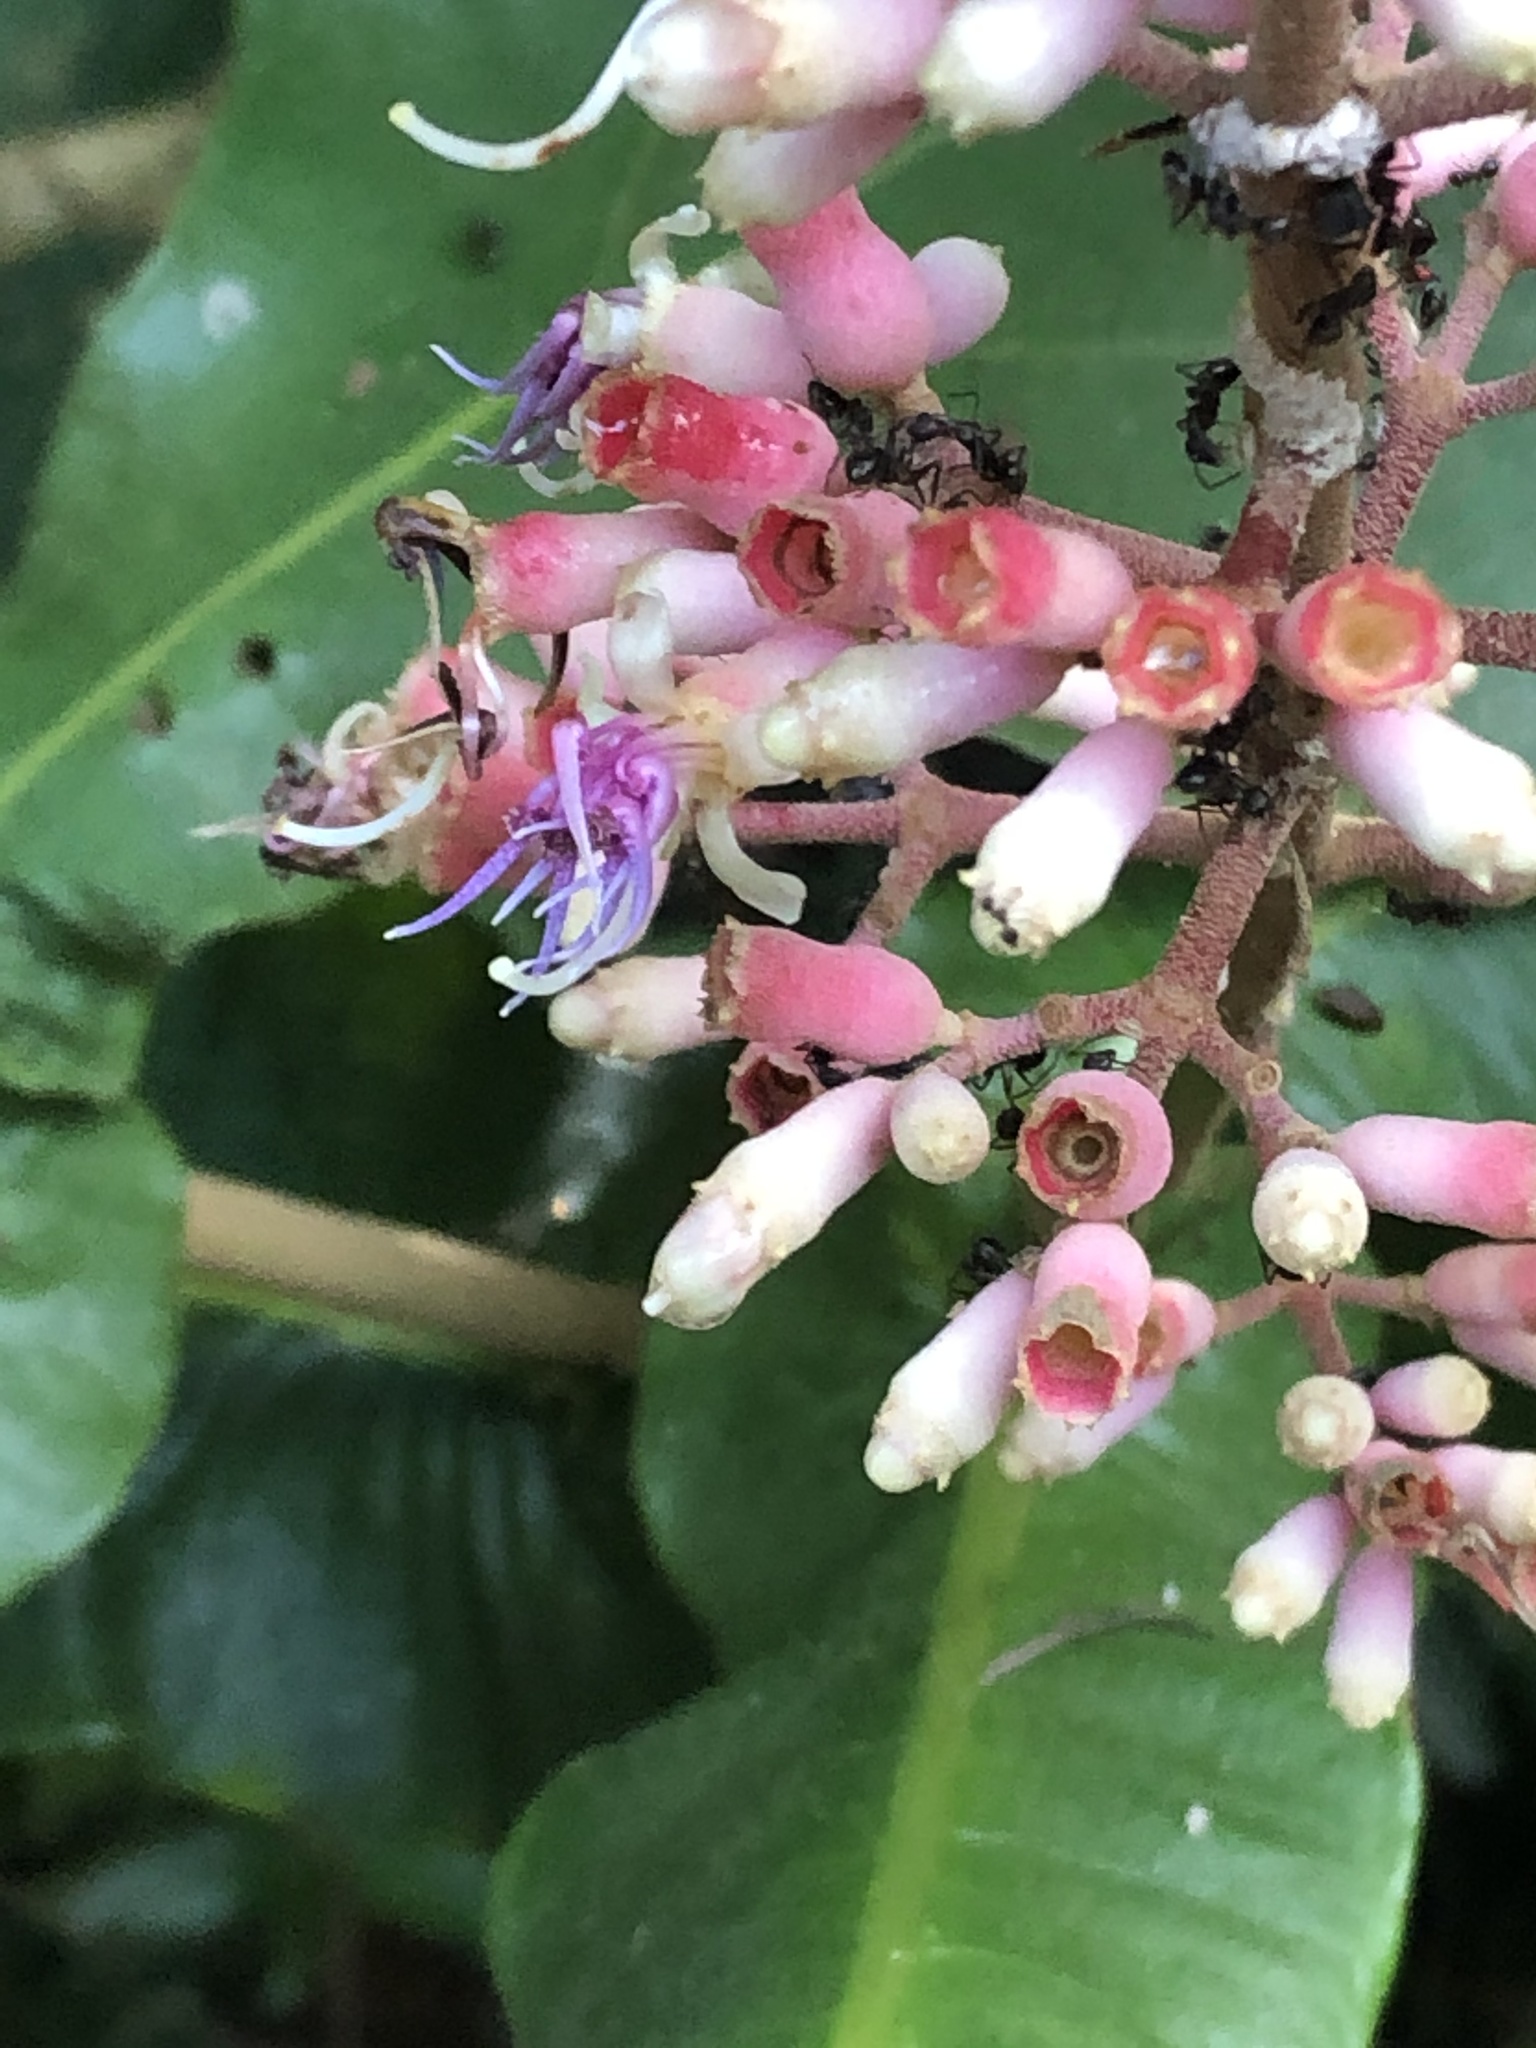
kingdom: Plantae
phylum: Tracheophyta
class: Magnoliopsida
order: Myrtales
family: Melastomataceae
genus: Miconia
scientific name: Miconia tomentosa
